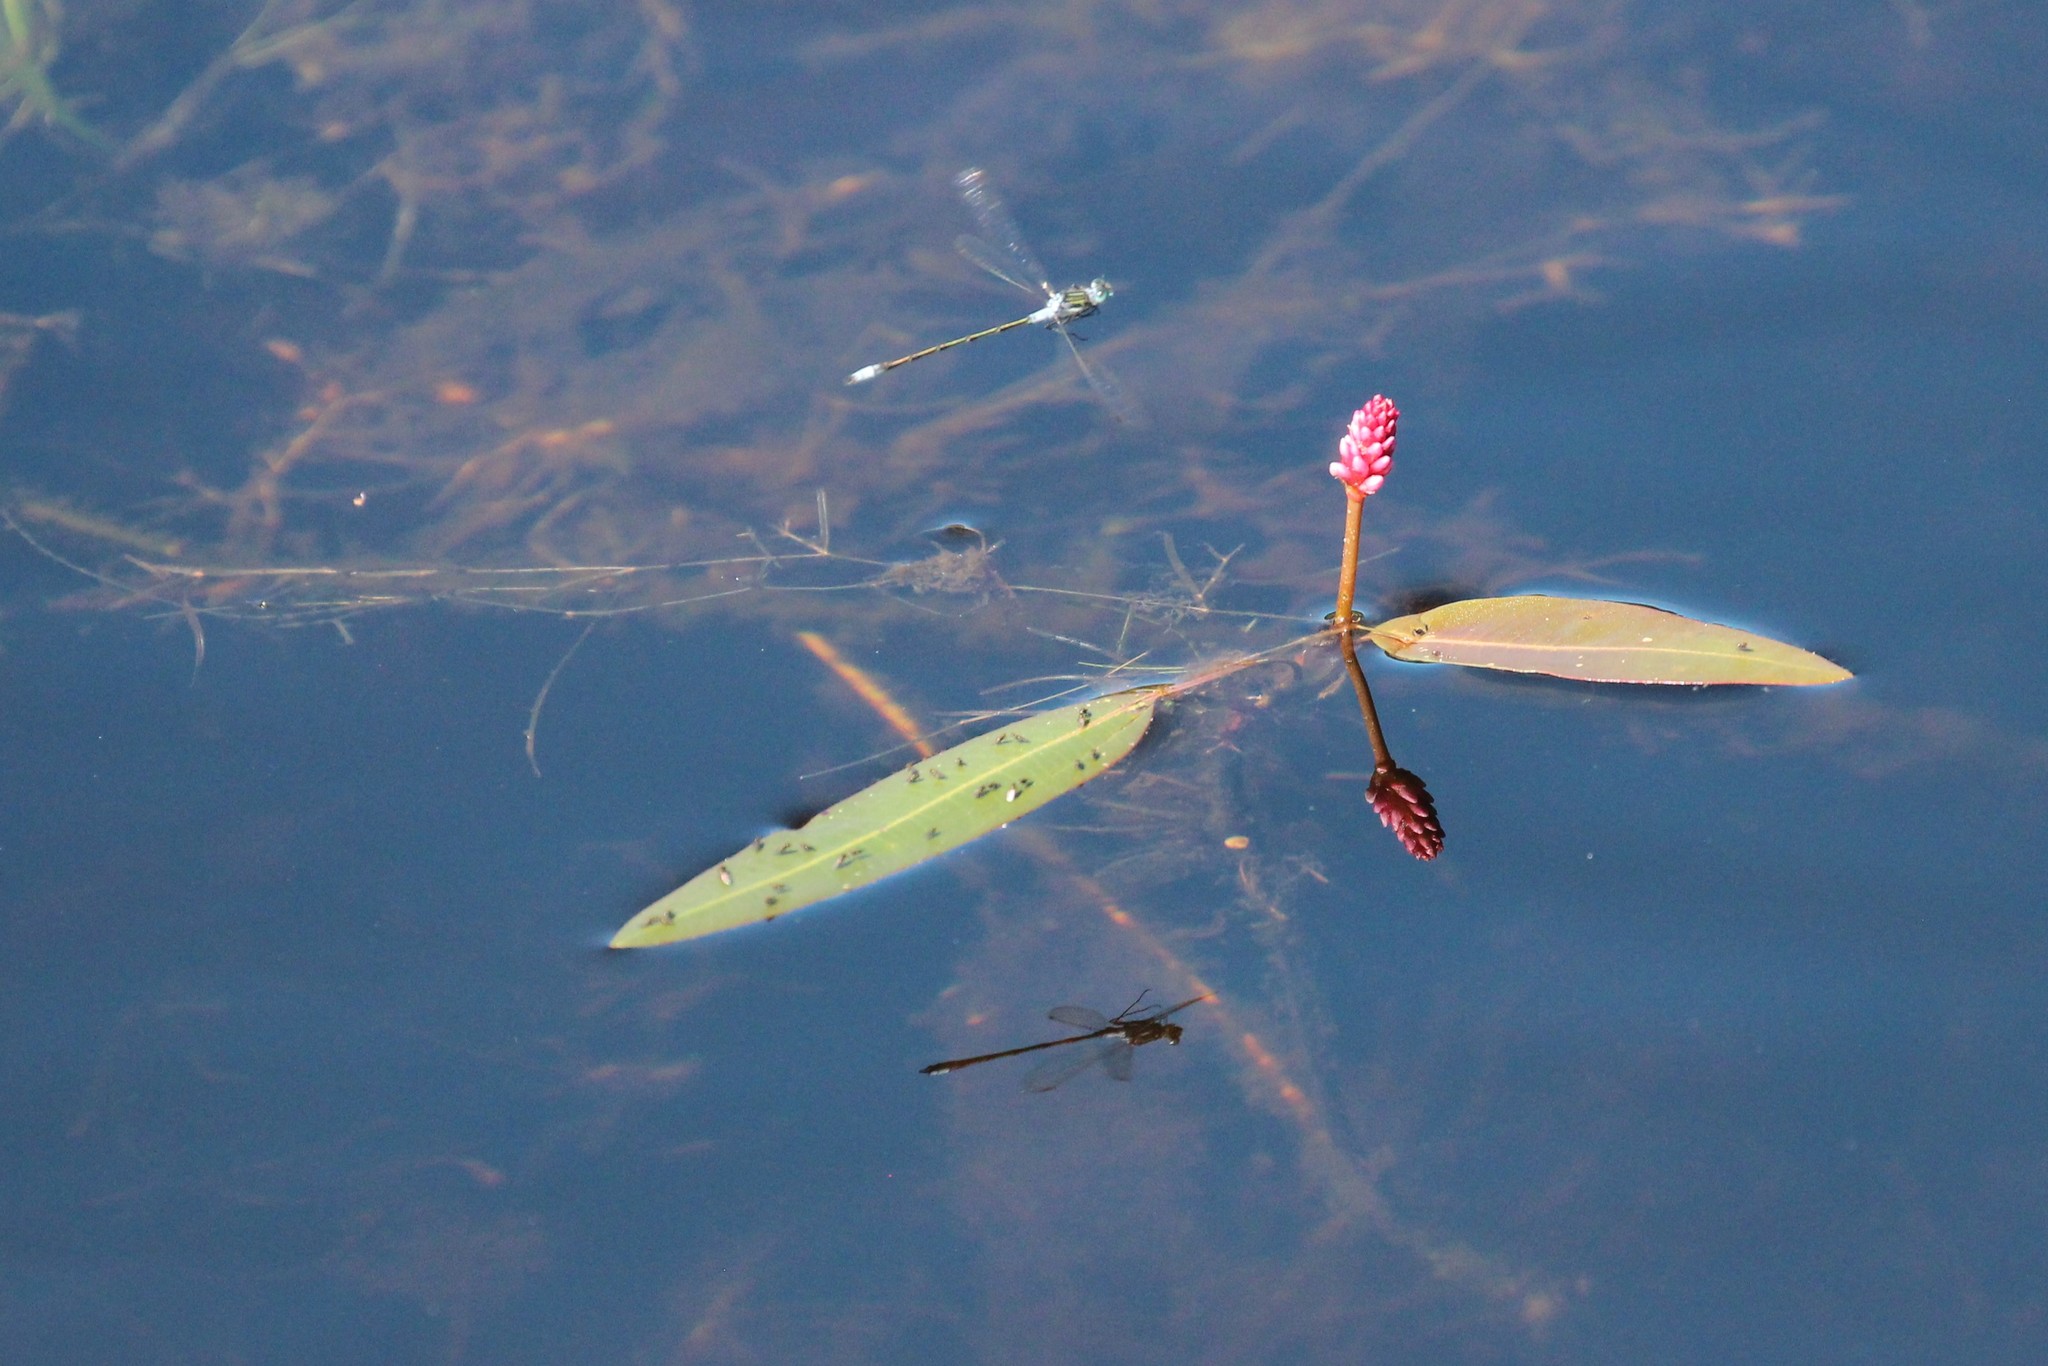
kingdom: Plantae
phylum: Tracheophyta
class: Magnoliopsida
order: Caryophyllales
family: Polygonaceae
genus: Persicaria
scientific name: Persicaria amphibia
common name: Amphibious bistort
